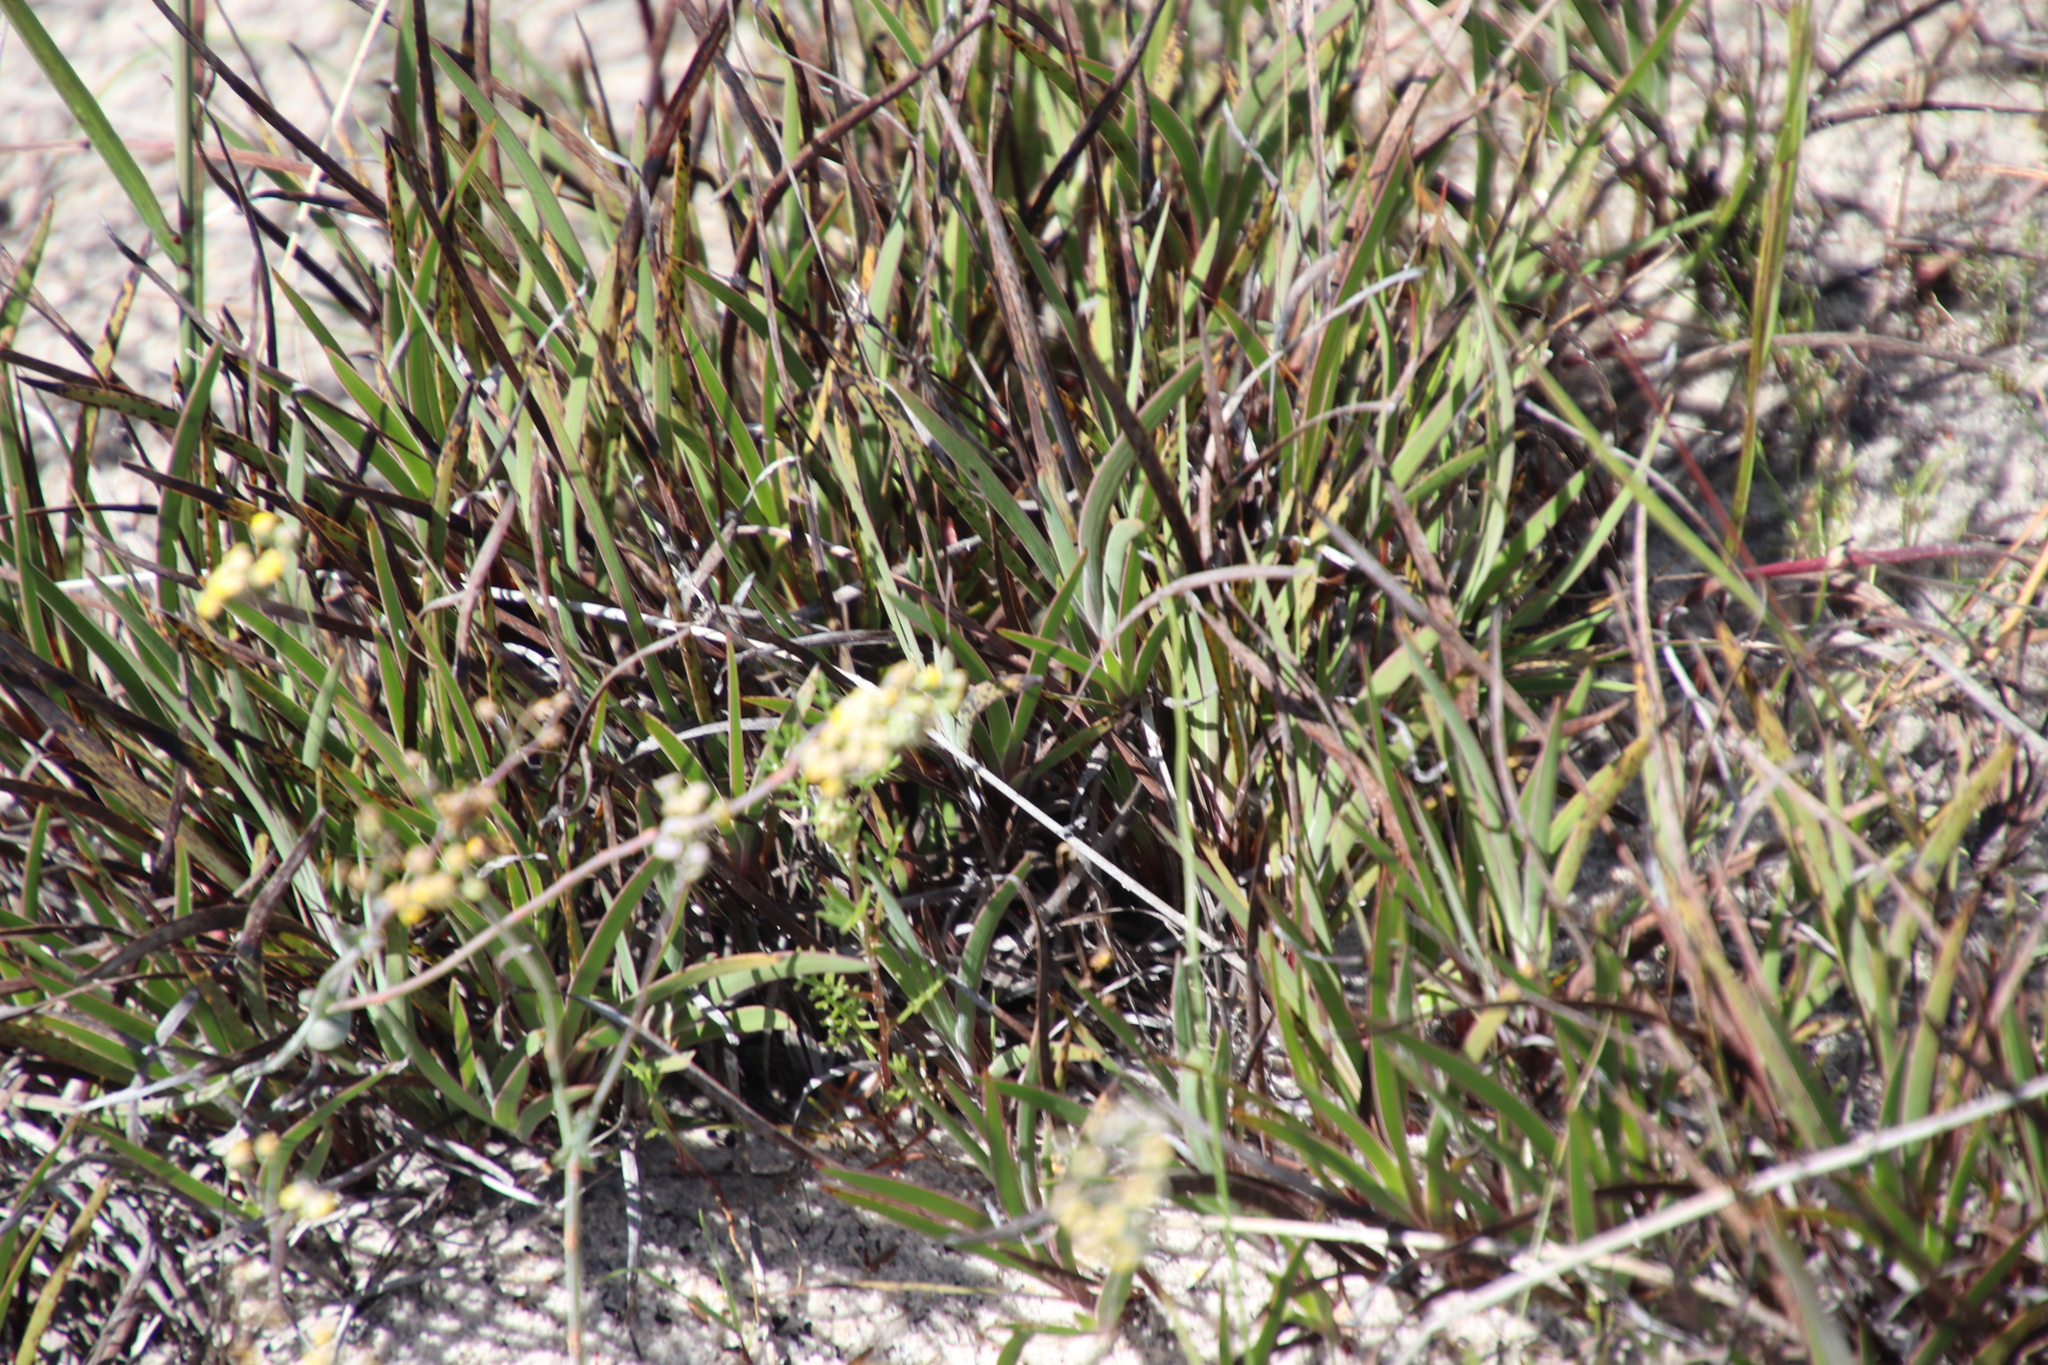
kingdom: Plantae
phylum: Tracheophyta
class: Liliopsida
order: Asparagales
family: Iridaceae
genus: Aristea
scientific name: Aristea africana
